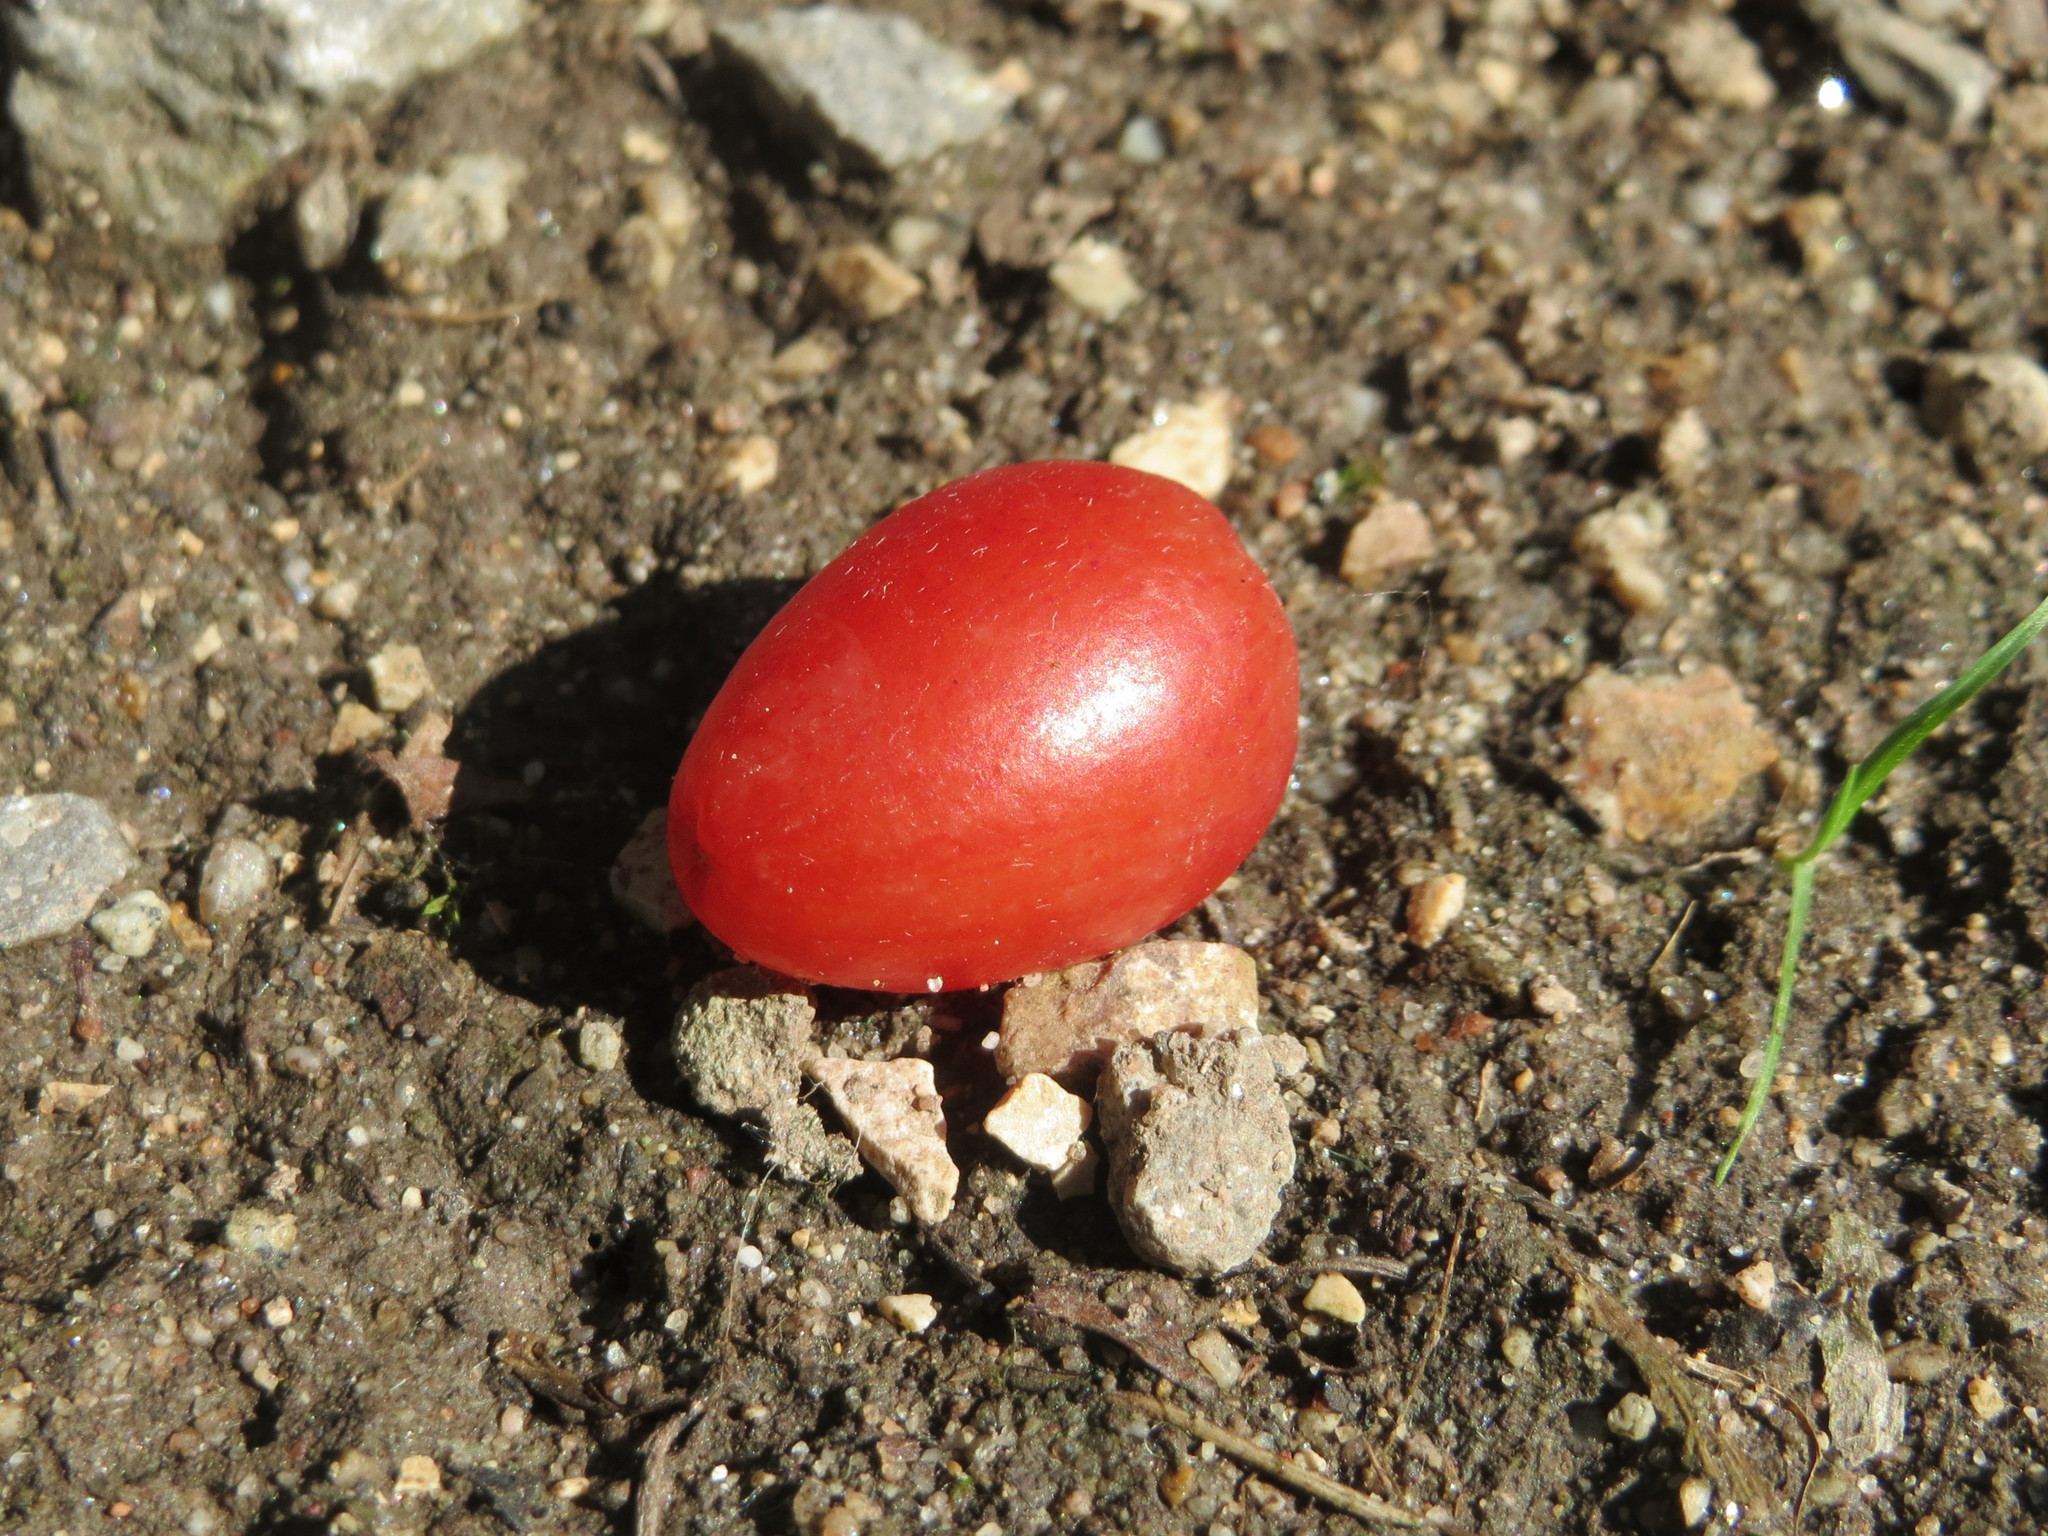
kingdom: Plantae
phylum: Tracheophyta
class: Magnoliopsida
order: Cornales
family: Cornaceae
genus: Cornus
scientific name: Cornus mas
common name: Cornelian-cherry
